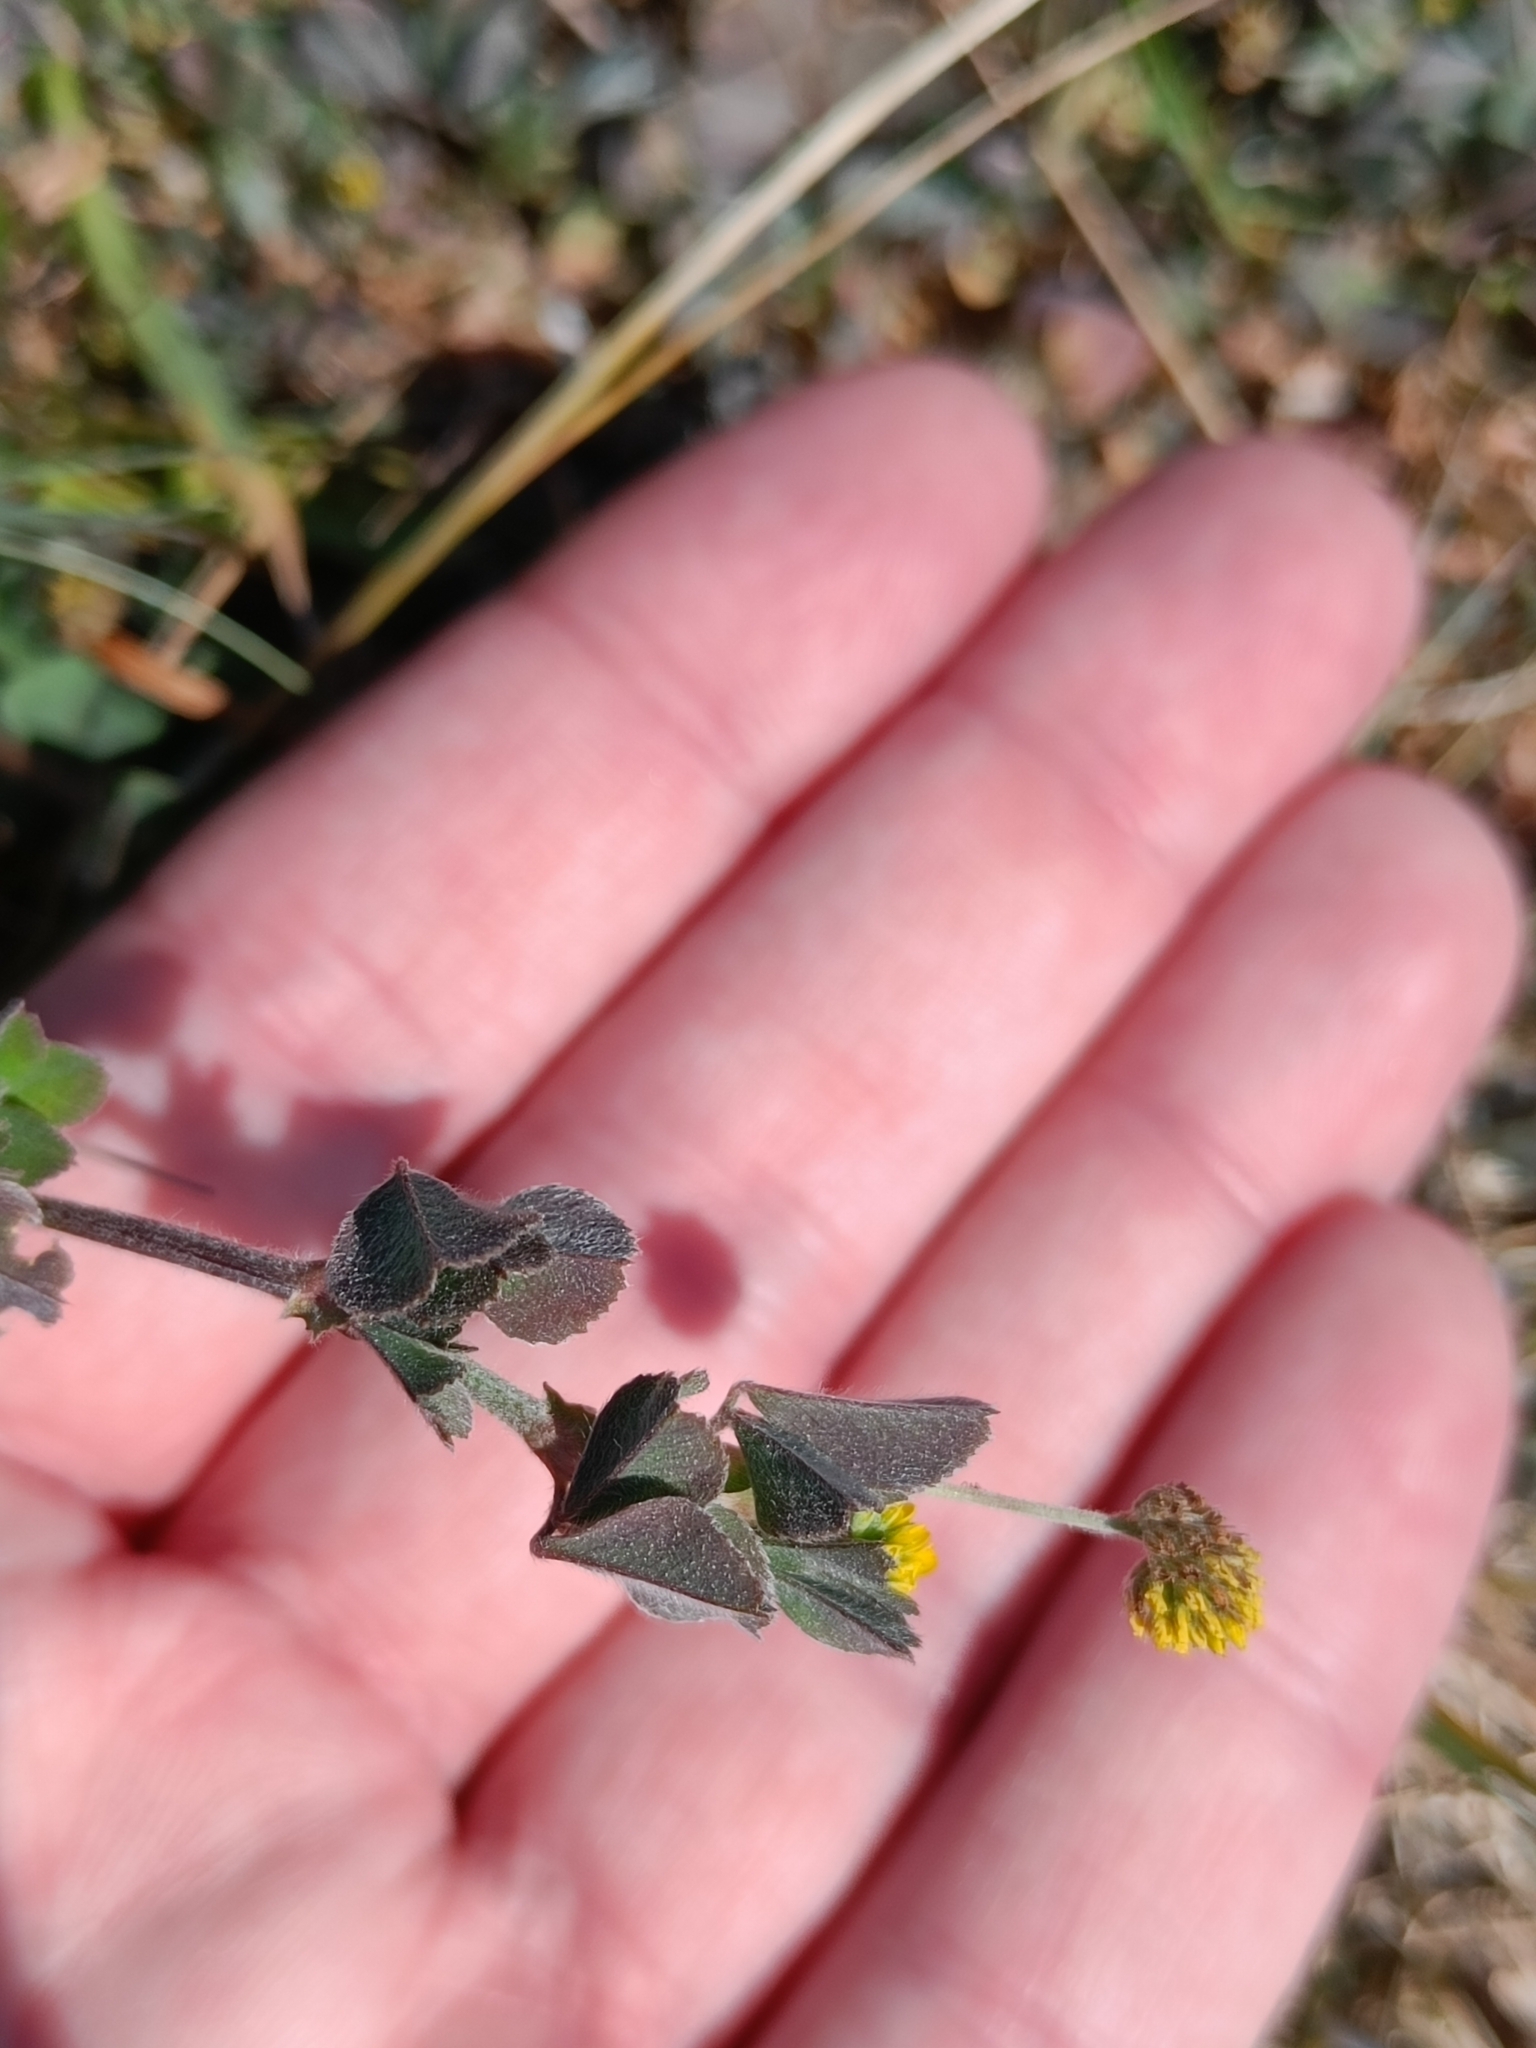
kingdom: Plantae
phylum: Tracheophyta
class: Magnoliopsida
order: Fabales
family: Fabaceae
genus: Medicago
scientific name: Medicago lupulina
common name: Black medick
